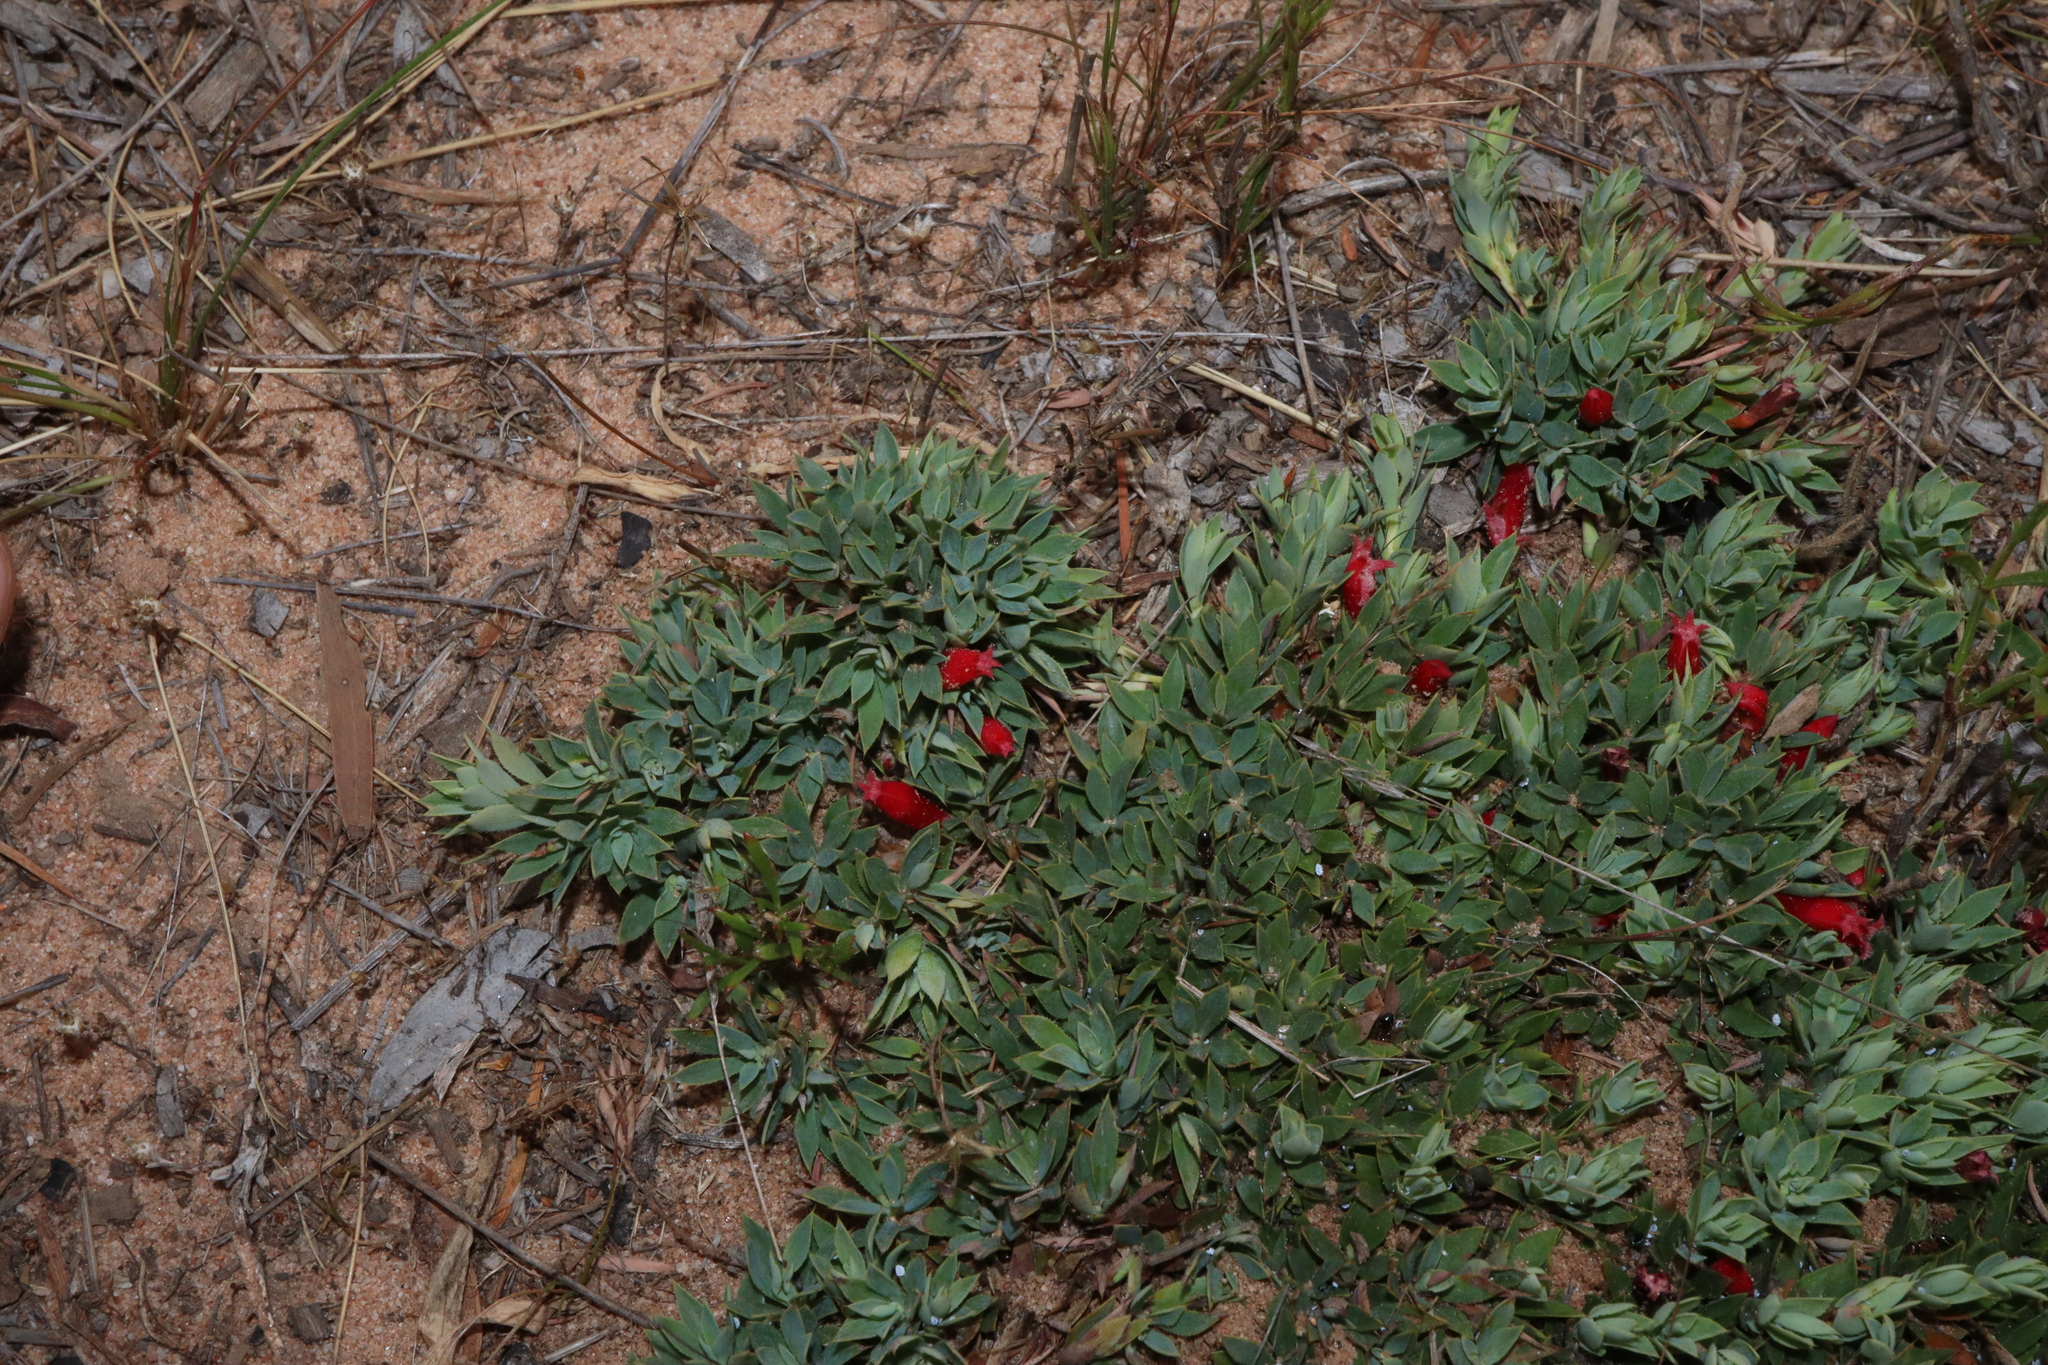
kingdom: Plantae
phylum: Tracheophyta
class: Magnoliopsida
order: Ericales
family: Ericaceae
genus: Styphelia
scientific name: Styphelia compacta
